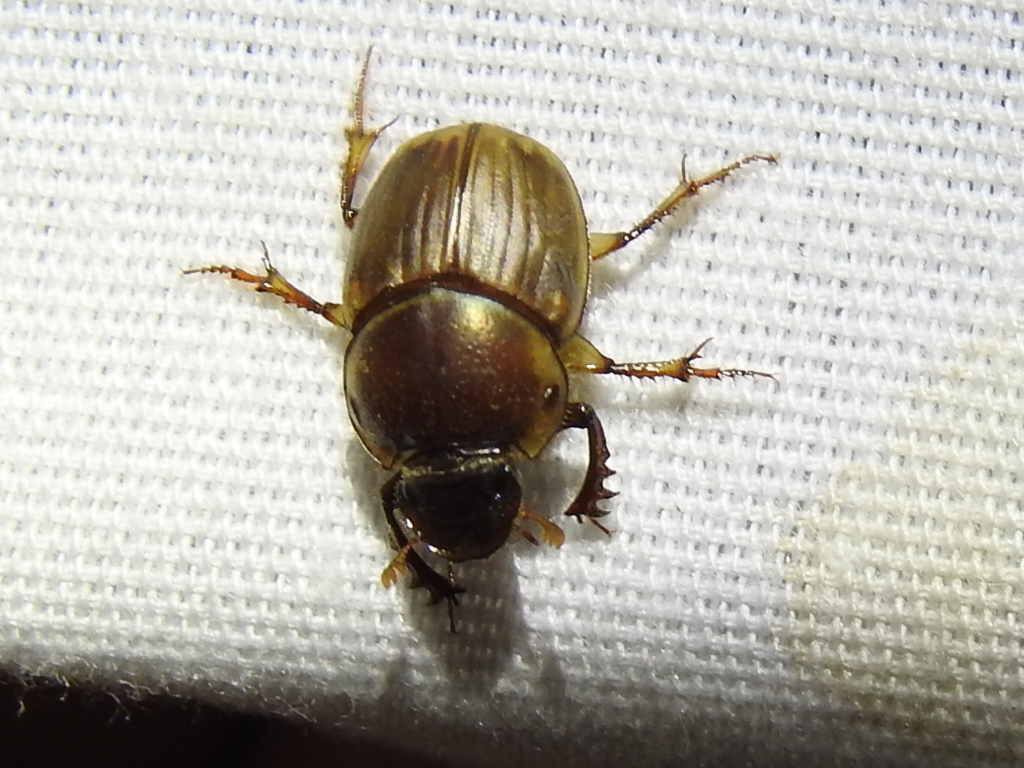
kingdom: Animalia
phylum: Arthropoda
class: Insecta
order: Coleoptera
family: Scarabaeidae
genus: Digitonthophagus
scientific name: Digitonthophagus gazella
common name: Brown dung beetle
